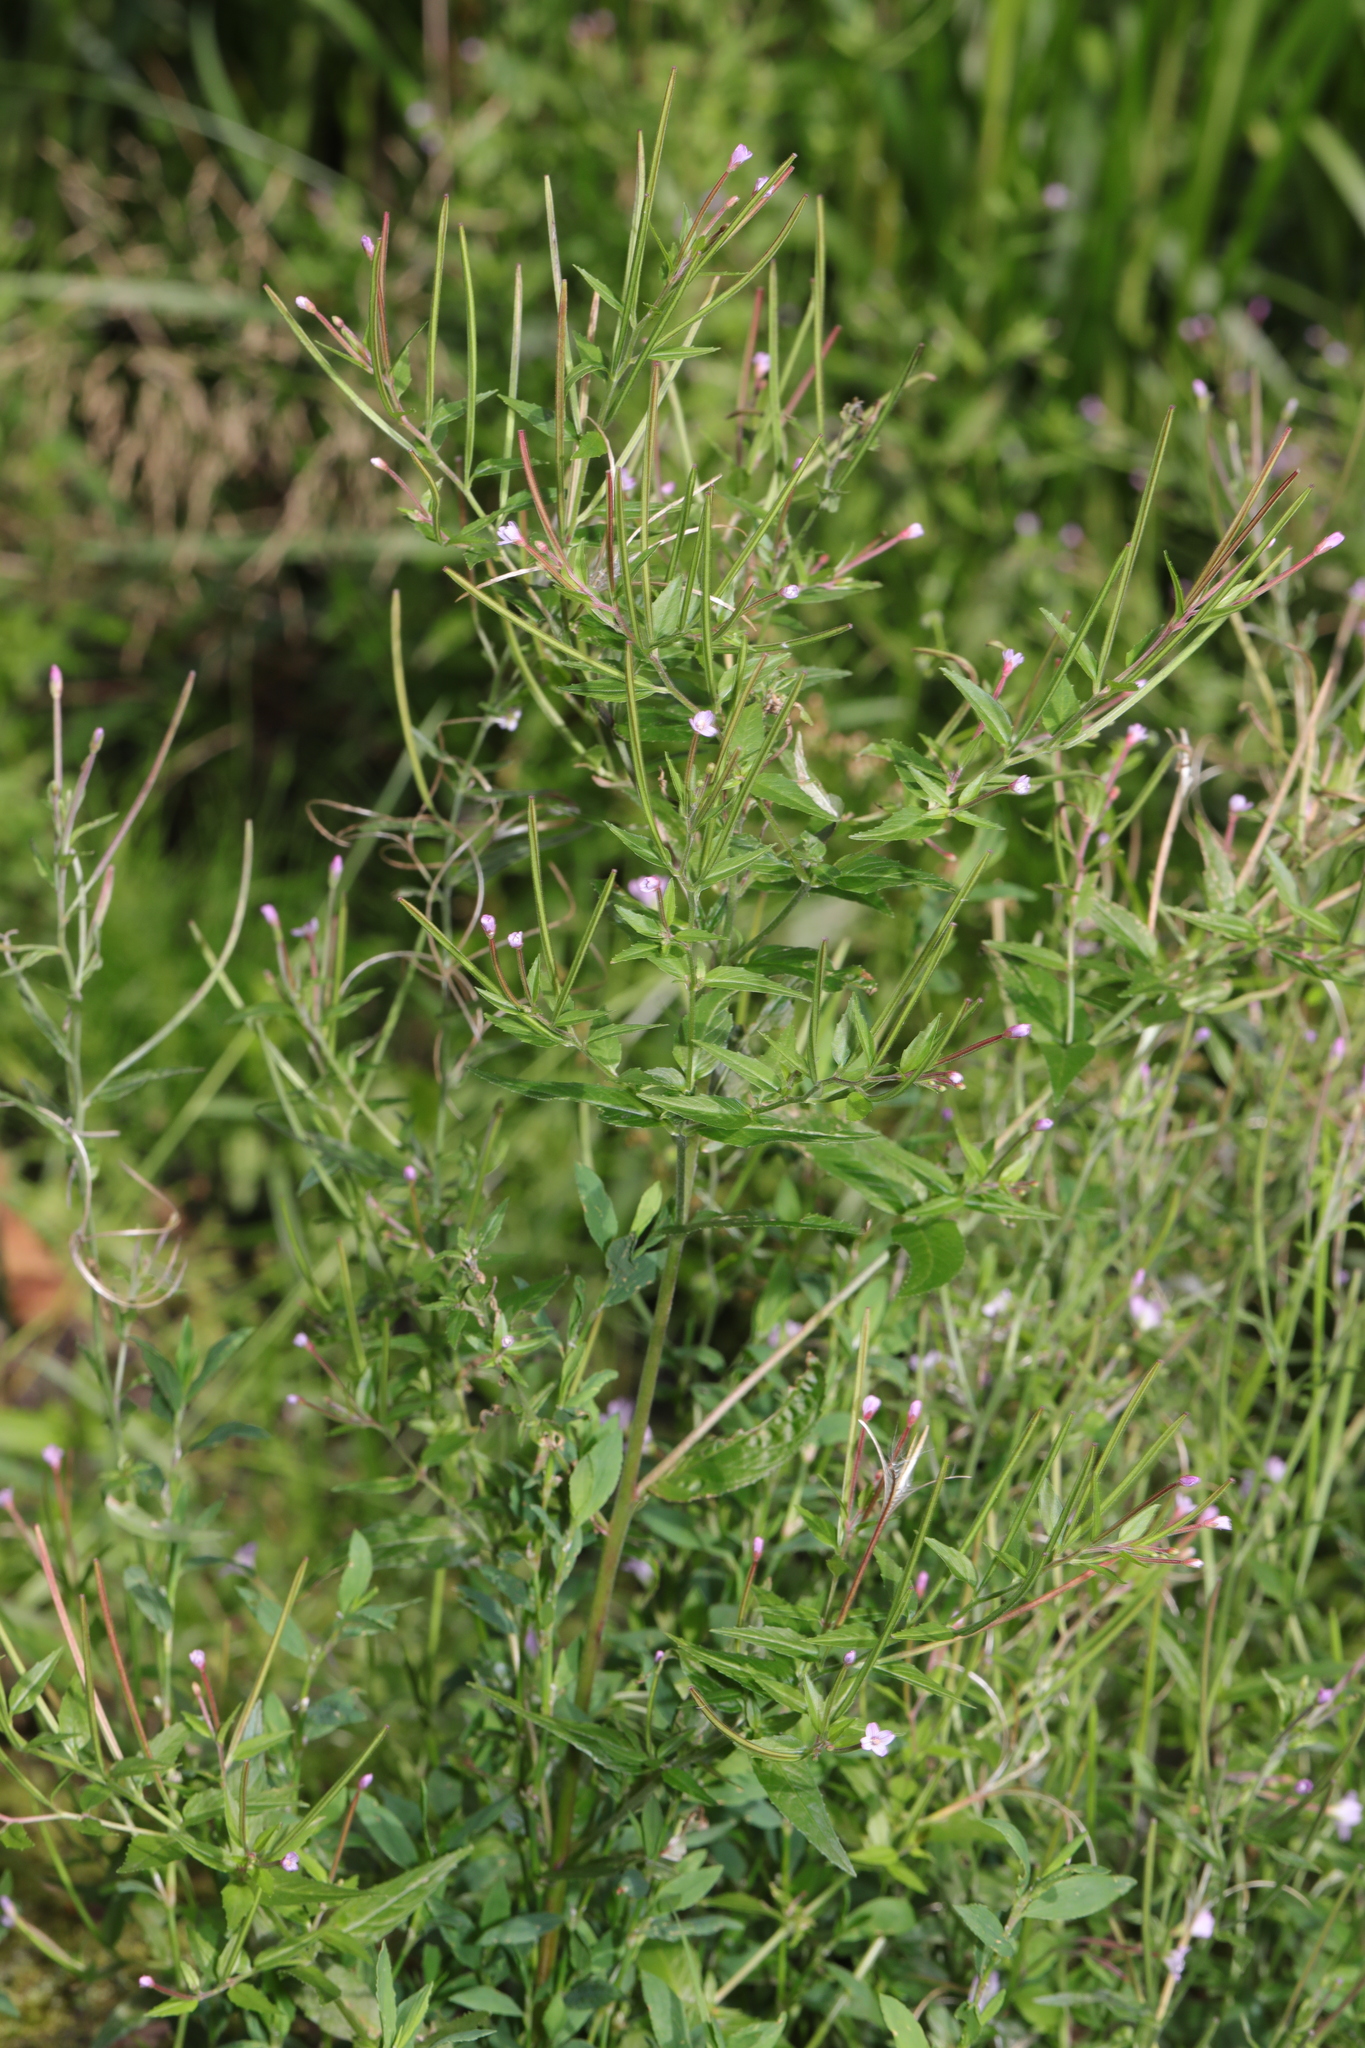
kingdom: Plantae
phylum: Tracheophyta
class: Magnoliopsida
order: Myrtales
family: Onagraceae
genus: Epilobium
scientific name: Epilobium ciliatum
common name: American willowherb
